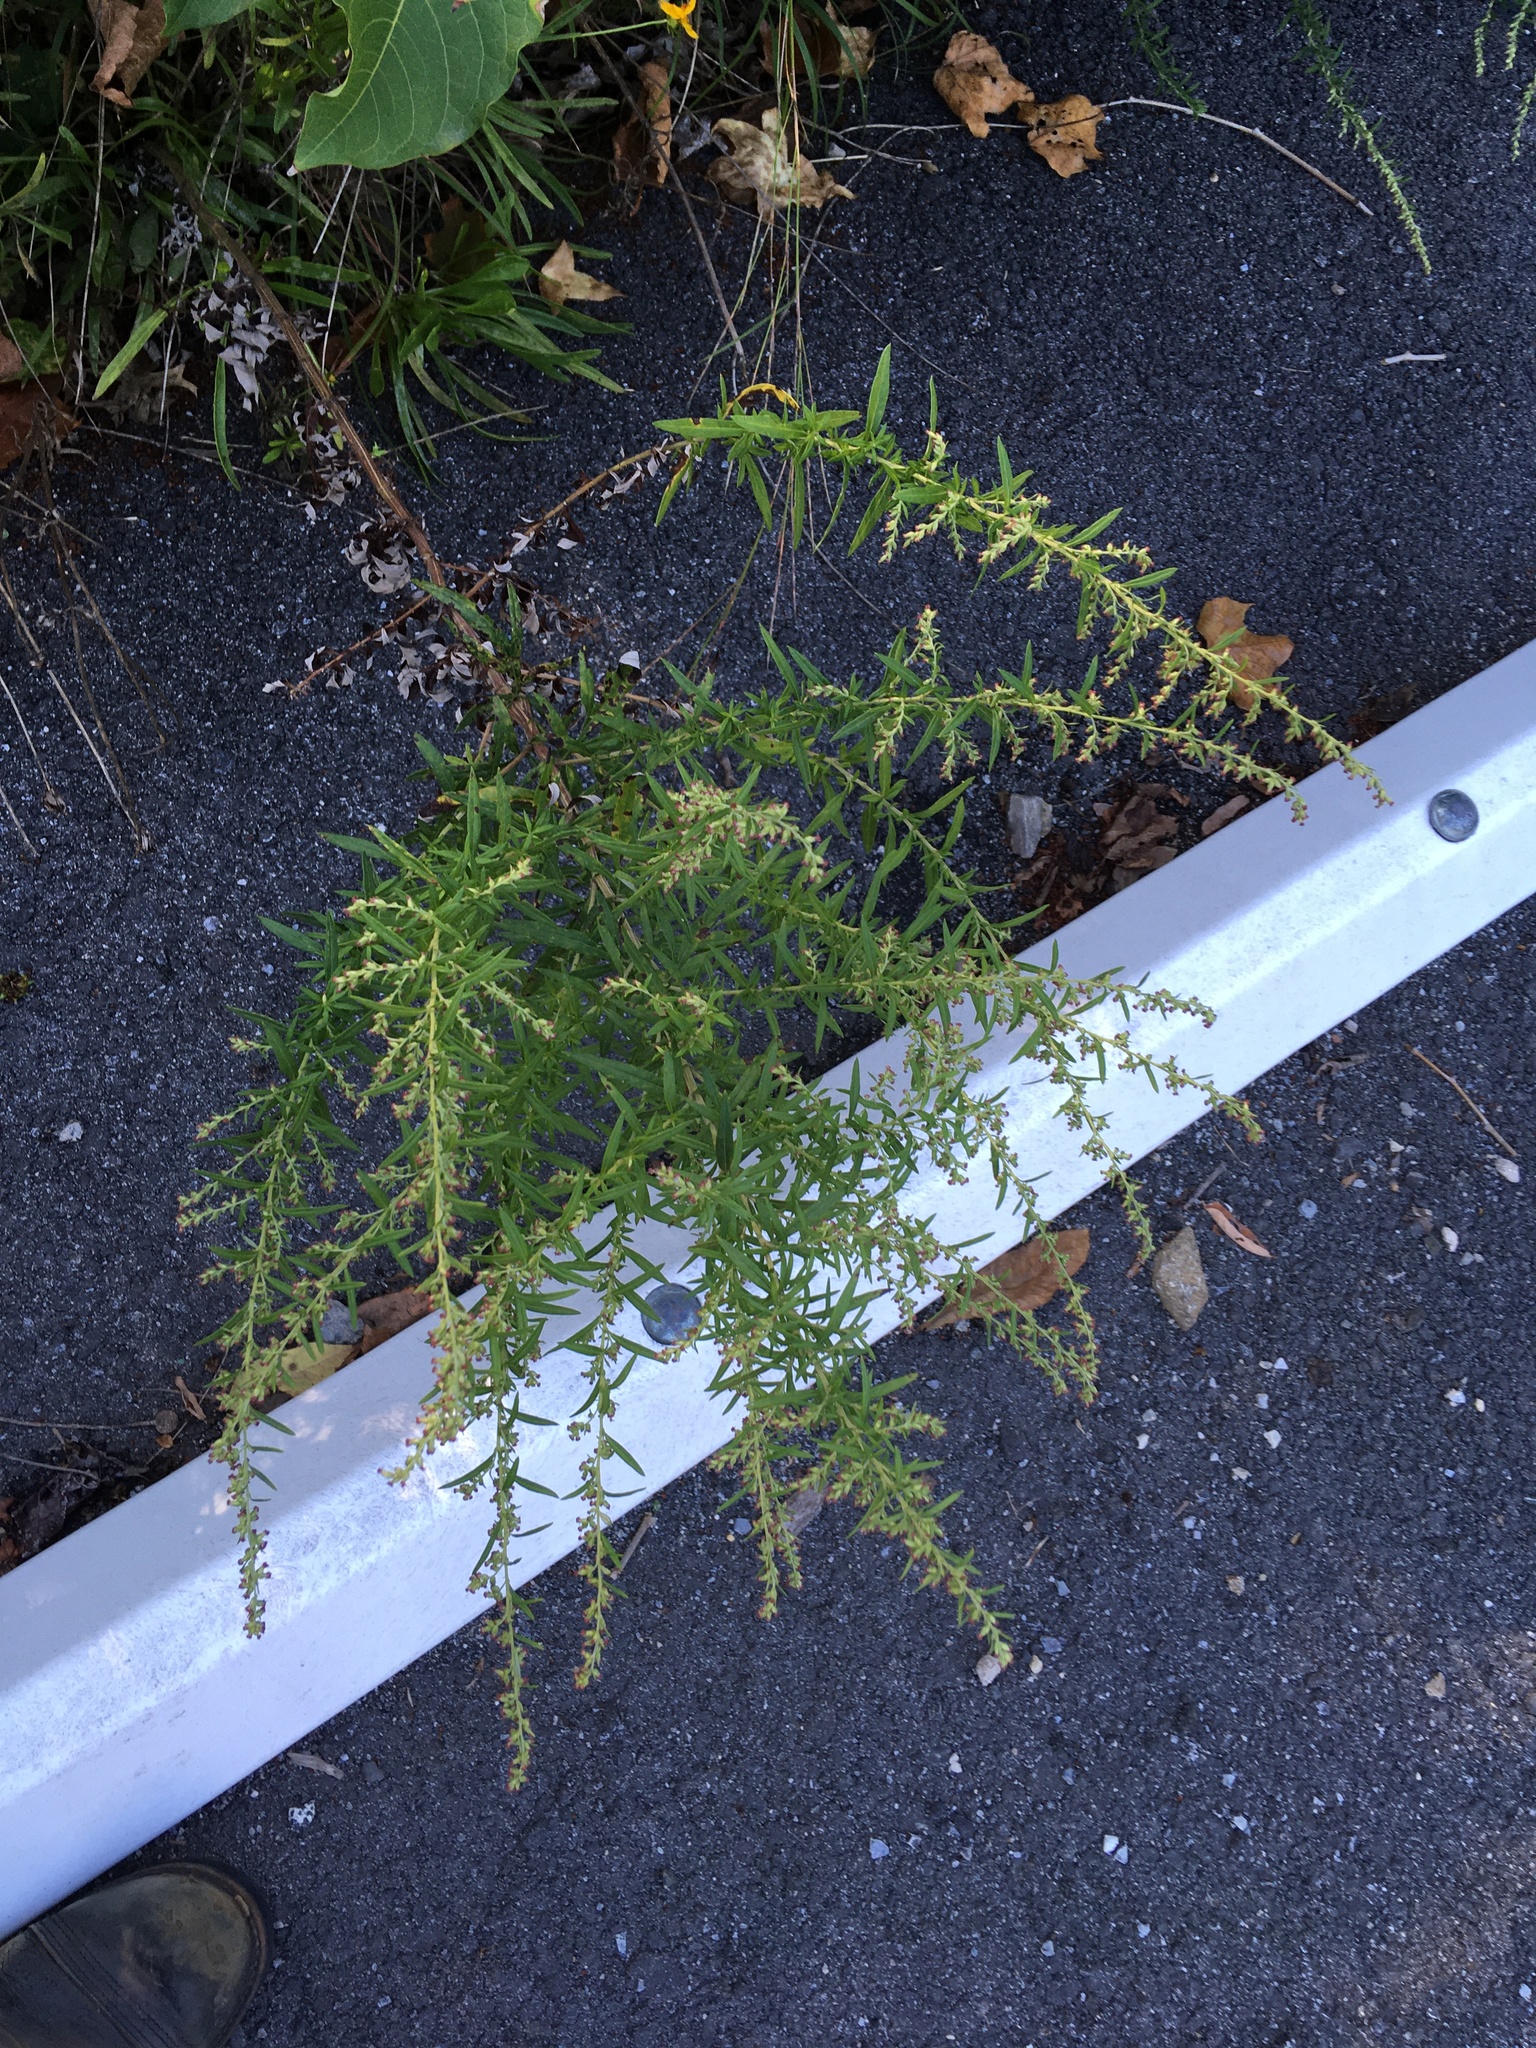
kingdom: Plantae
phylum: Tracheophyta
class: Magnoliopsida
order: Asterales
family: Asteraceae
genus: Artemisia
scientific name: Artemisia vulgaris
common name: Mugwort
